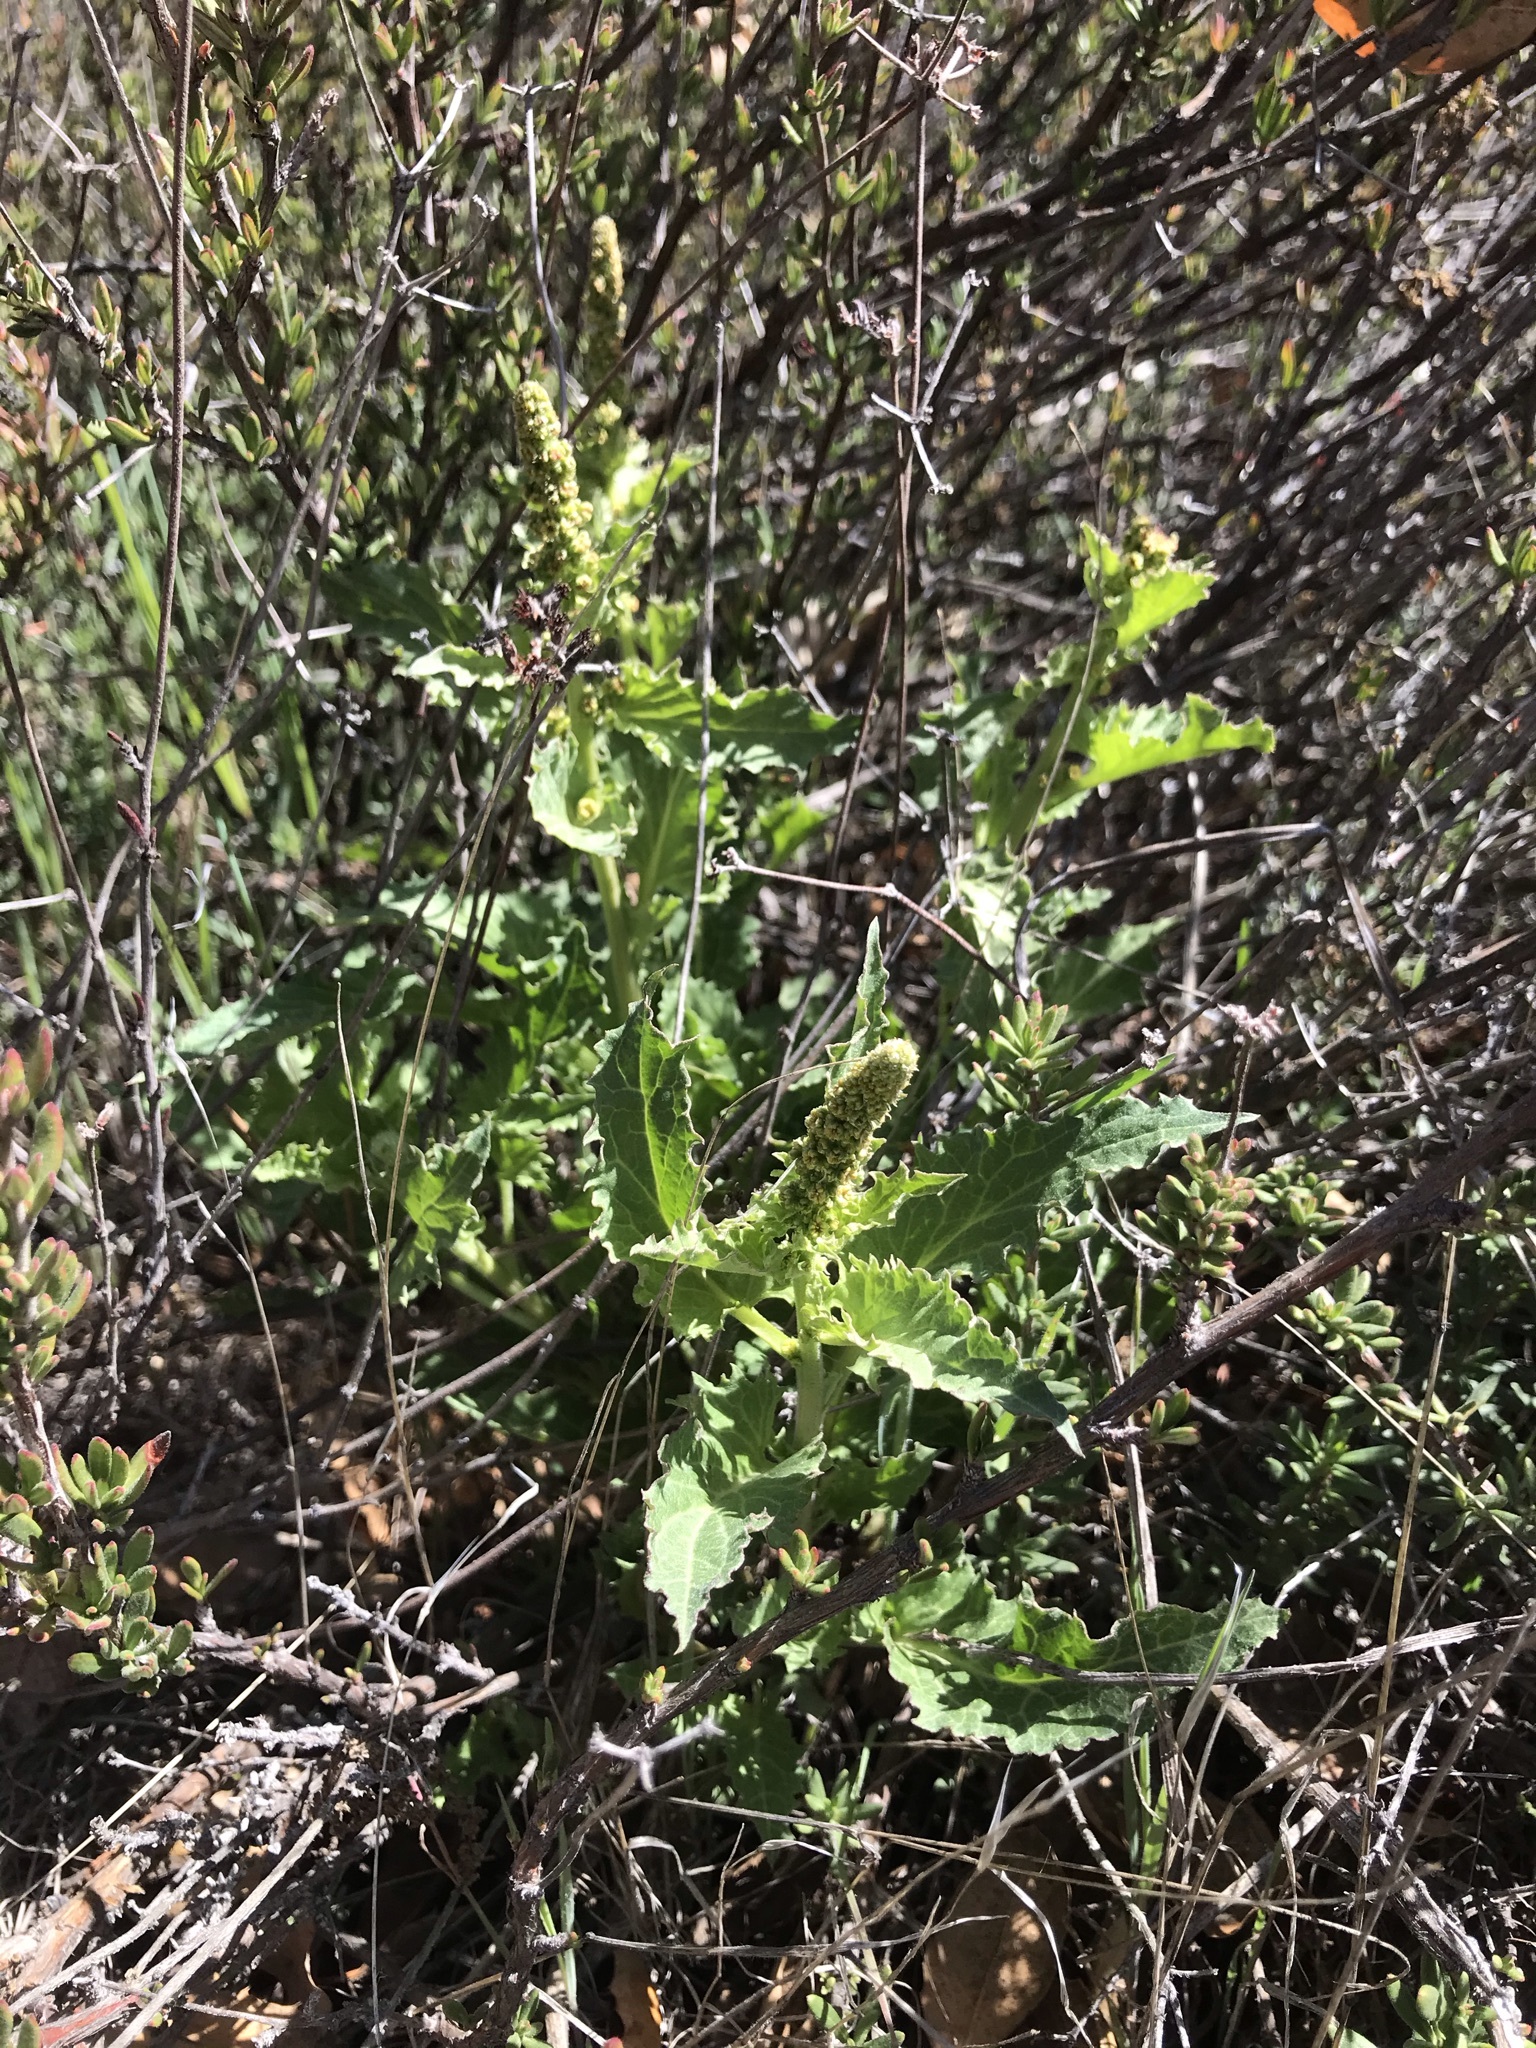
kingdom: Plantae
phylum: Tracheophyta
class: Magnoliopsida
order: Caryophyllales
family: Amaranthaceae
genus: Blitum
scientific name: Blitum californicum
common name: California goosefoot
